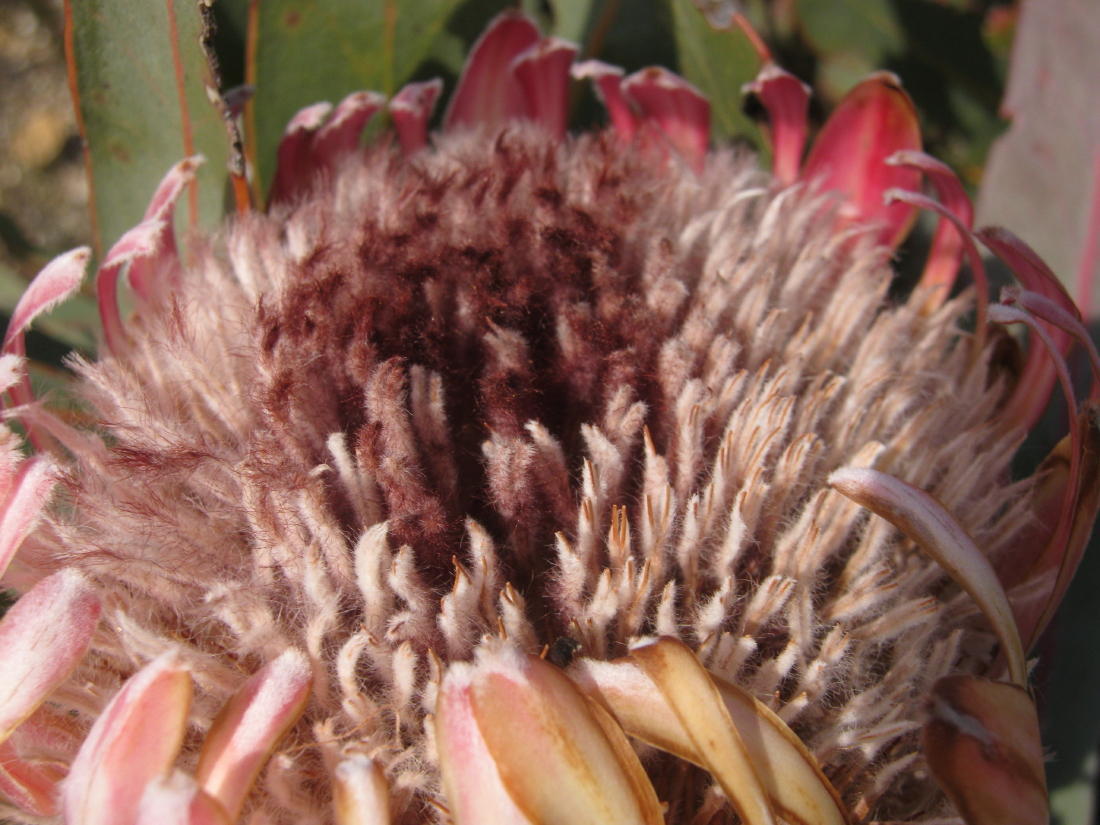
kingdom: Plantae
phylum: Tracheophyta
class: Magnoliopsida
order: Proteales
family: Proteaceae
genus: Protea
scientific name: Protea lorifolia
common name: Strap-leaved protea
